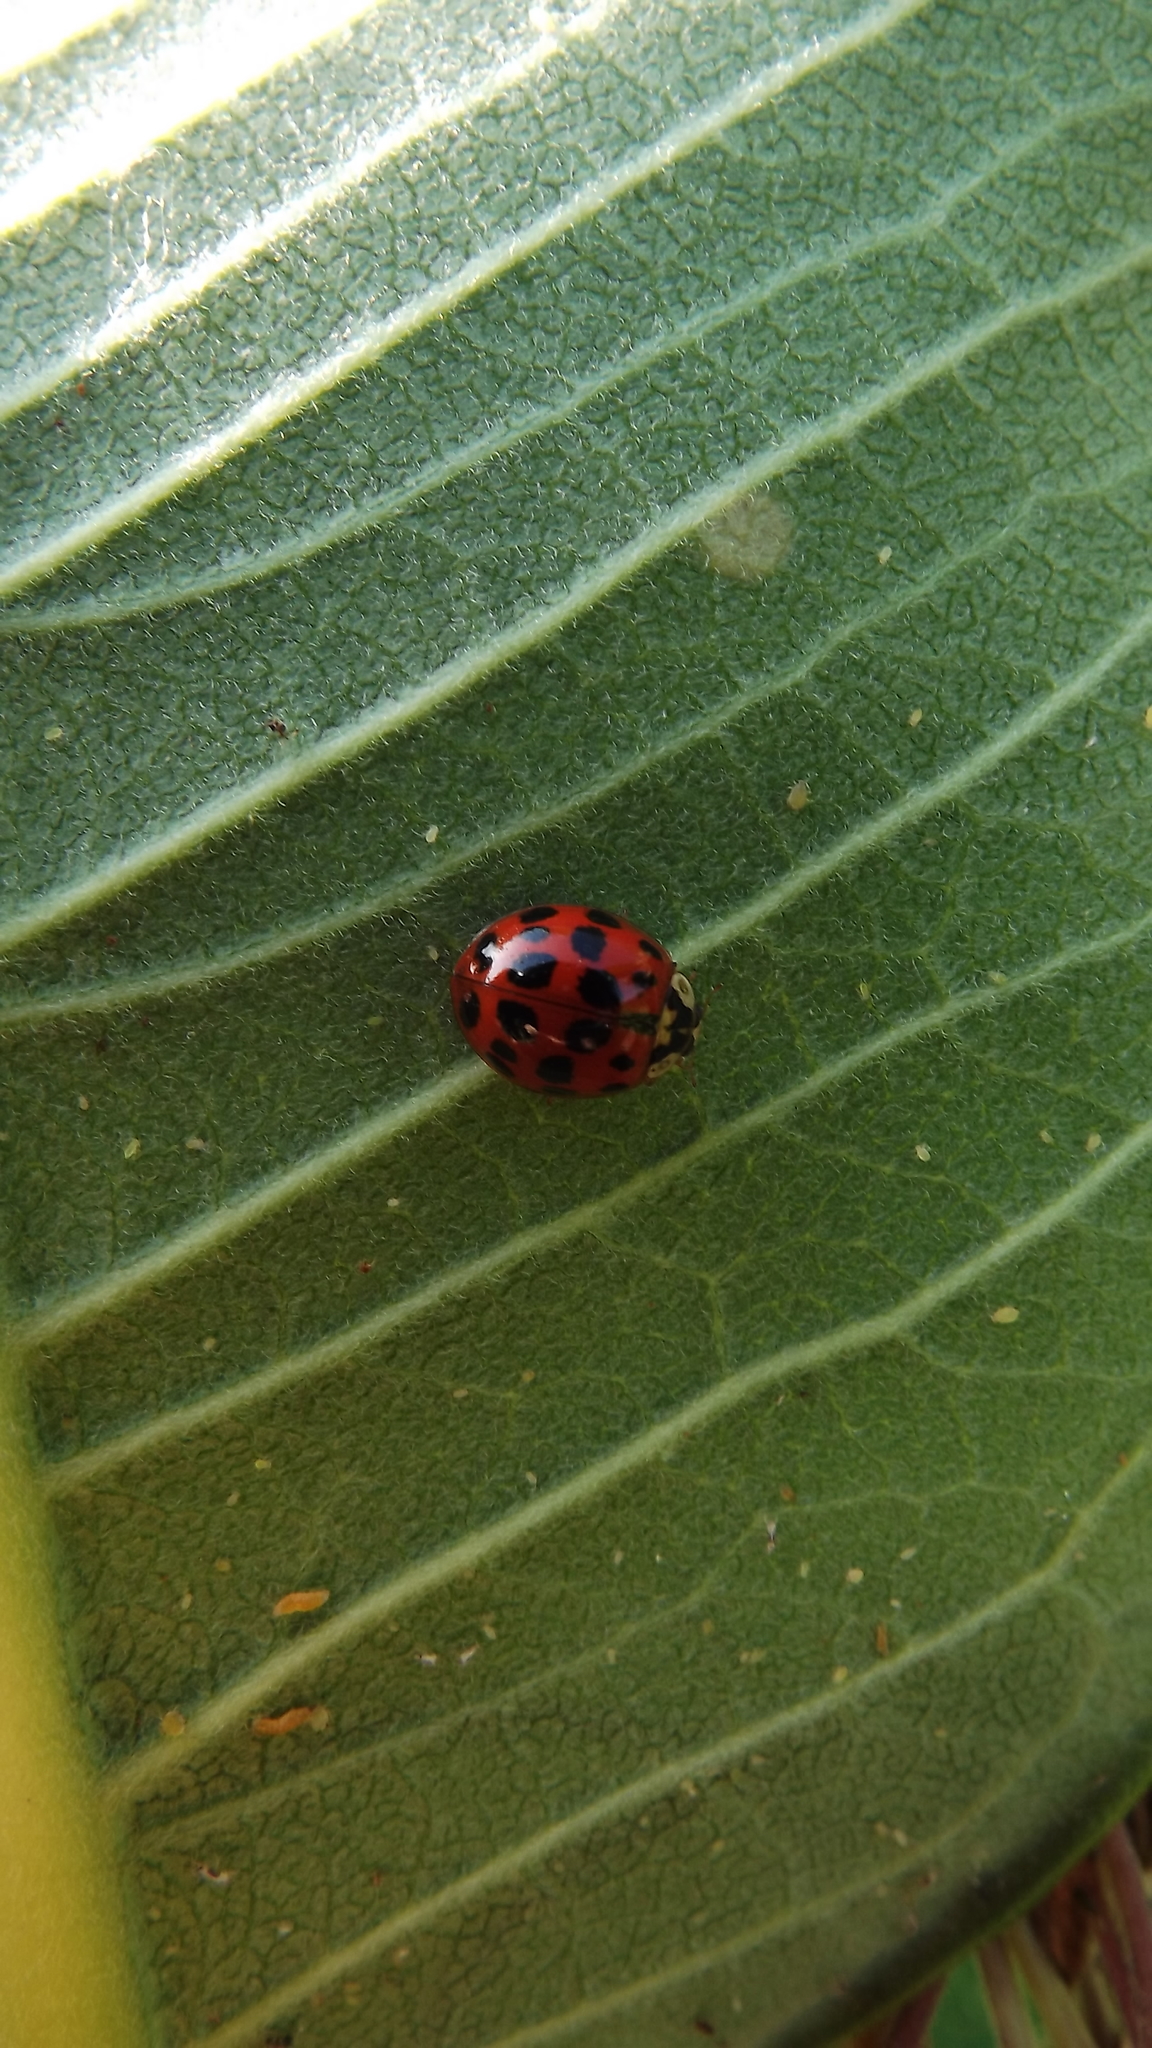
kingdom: Animalia
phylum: Arthropoda
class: Insecta
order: Coleoptera
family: Coccinellidae
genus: Harmonia
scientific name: Harmonia axyridis
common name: Harlequin ladybird
